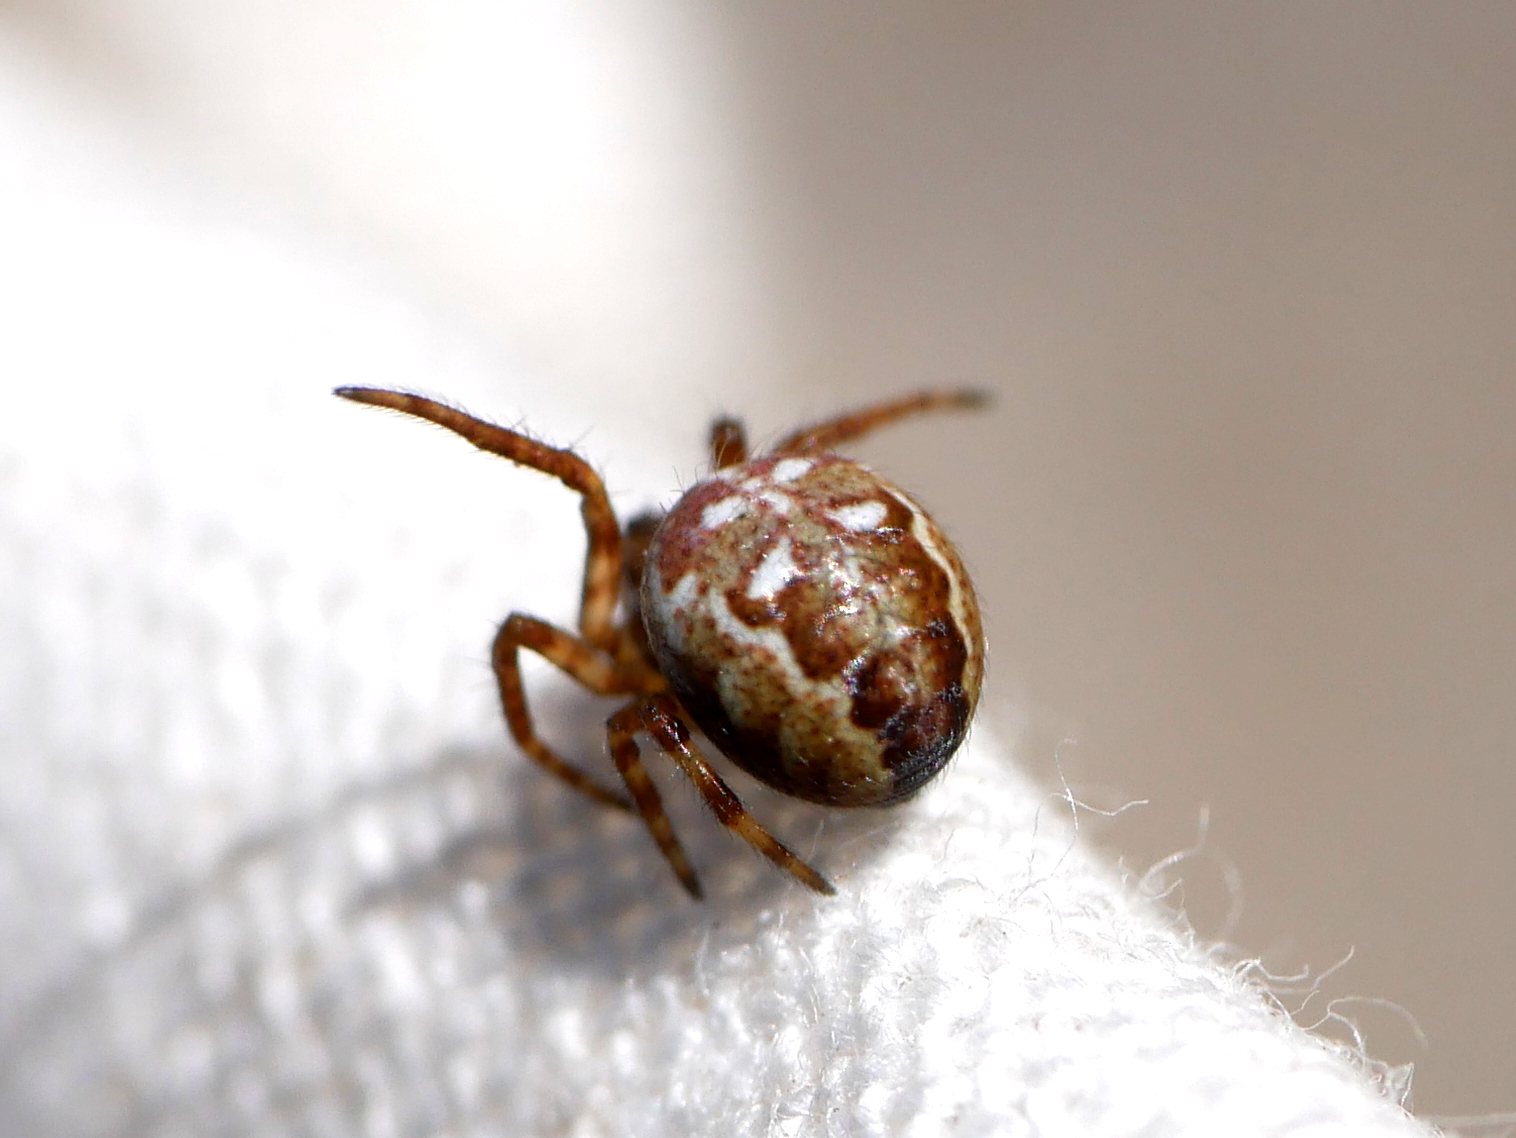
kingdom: Animalia
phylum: Arthropoda
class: Arachnida
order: Araneae
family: Araneidae
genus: Araneus
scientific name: Araneus quadratus
